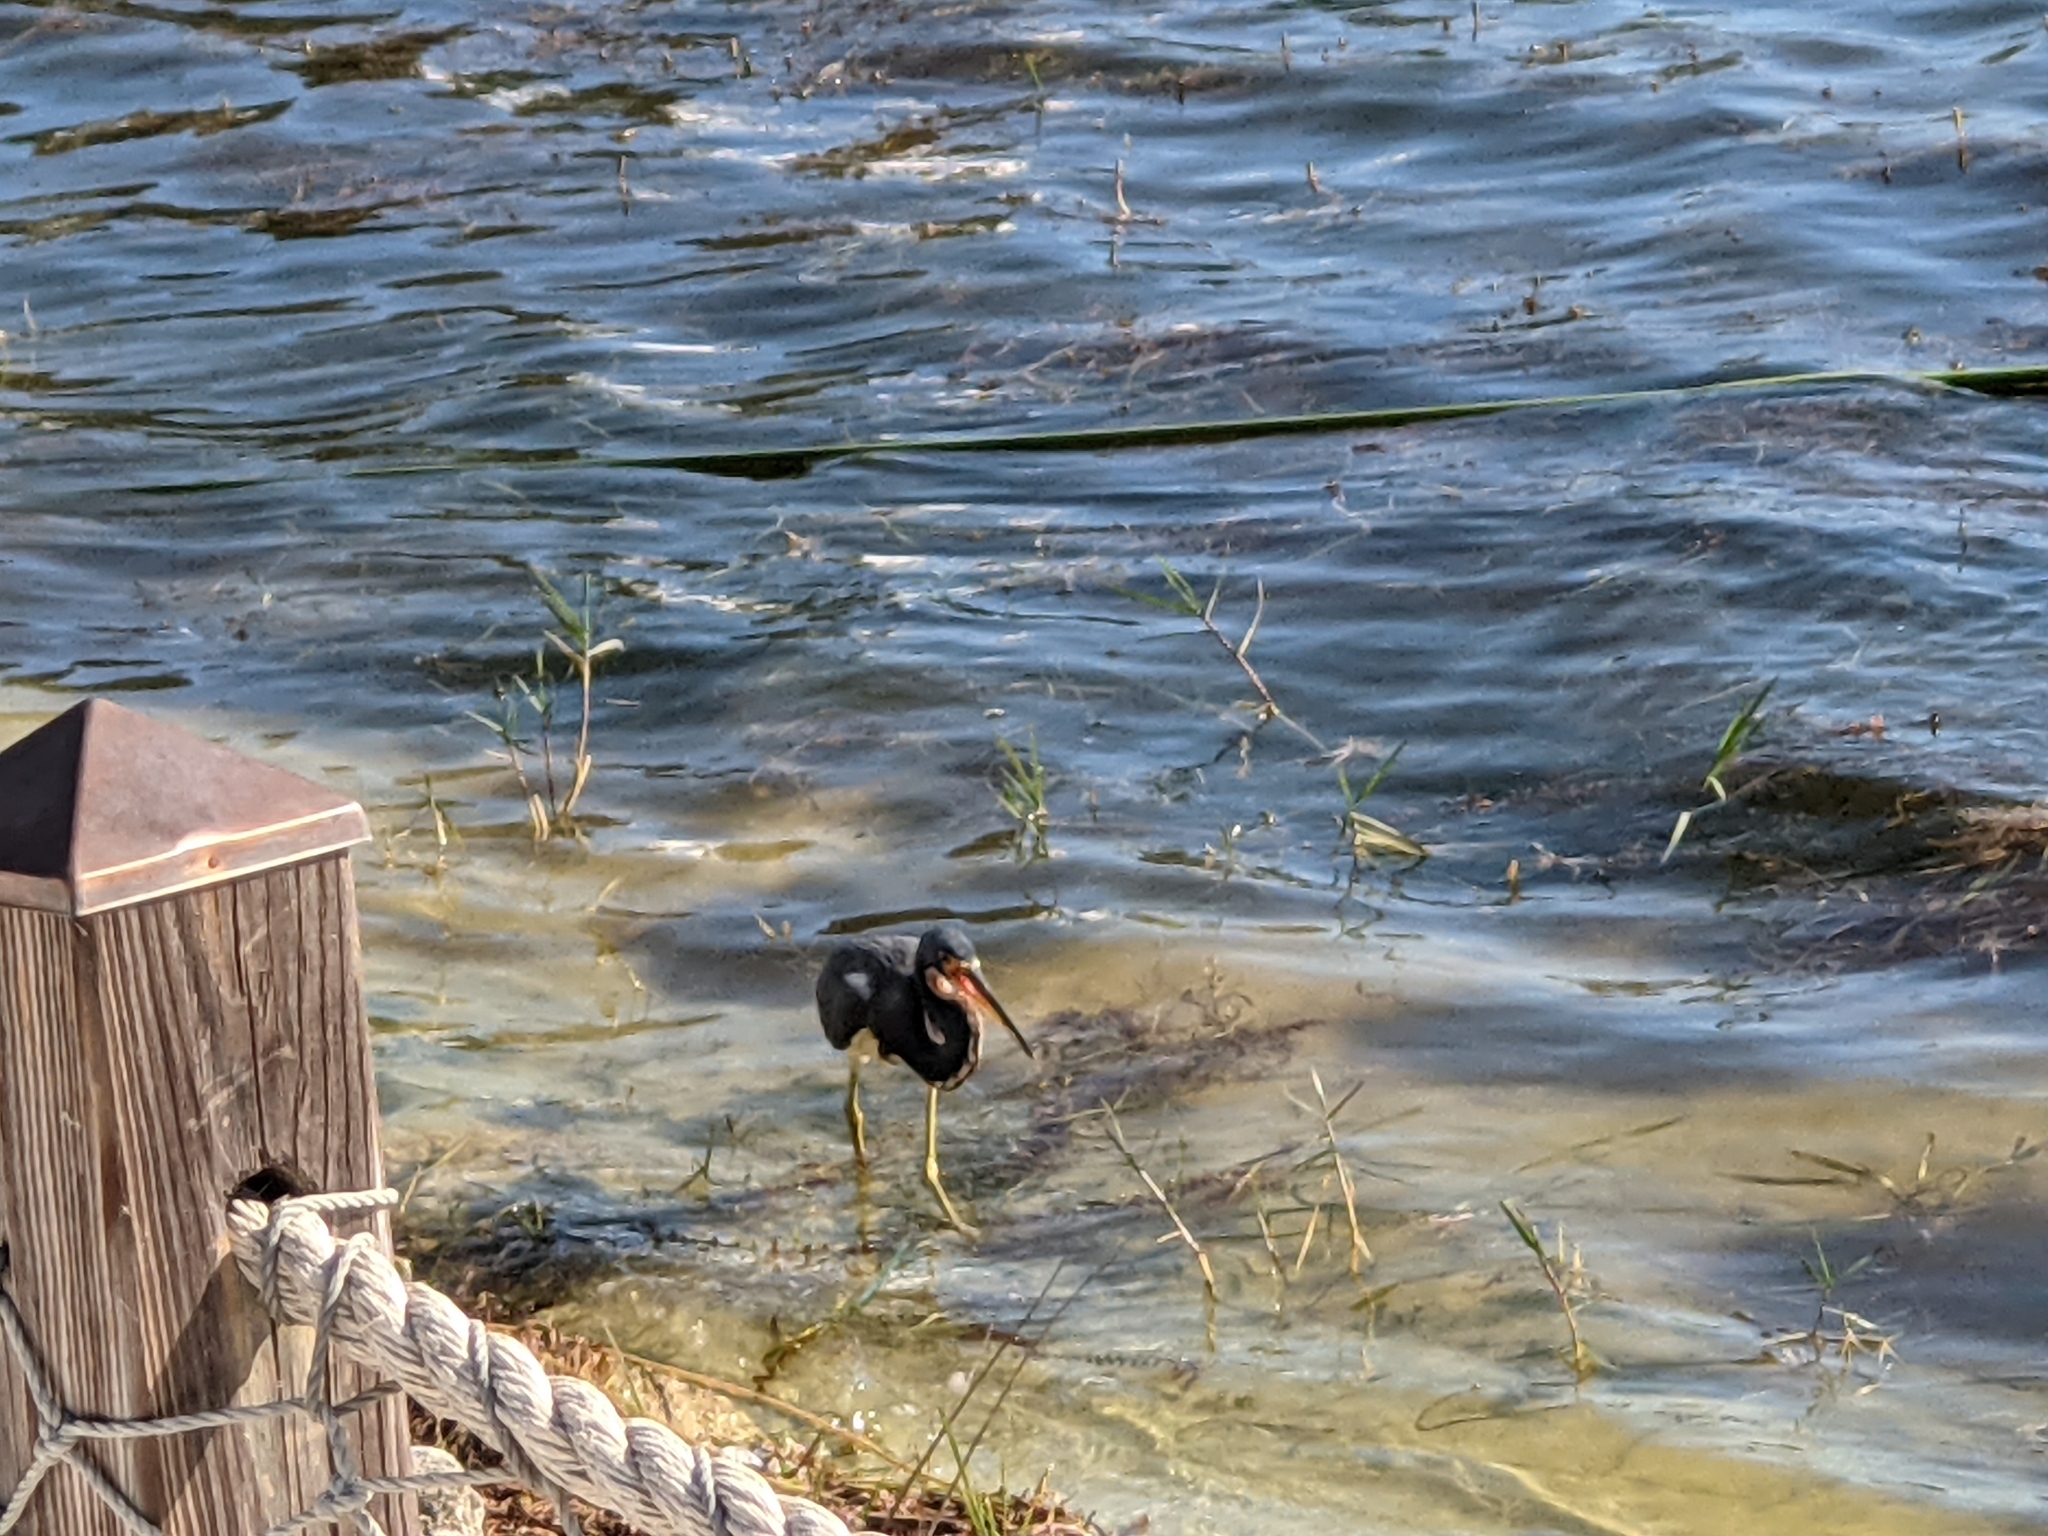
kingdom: Animalia
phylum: Chordata
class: Aves
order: Pelecaniformes
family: Ardeidae
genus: Egretta
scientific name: Egretta tricolor
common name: Tricolored heron
